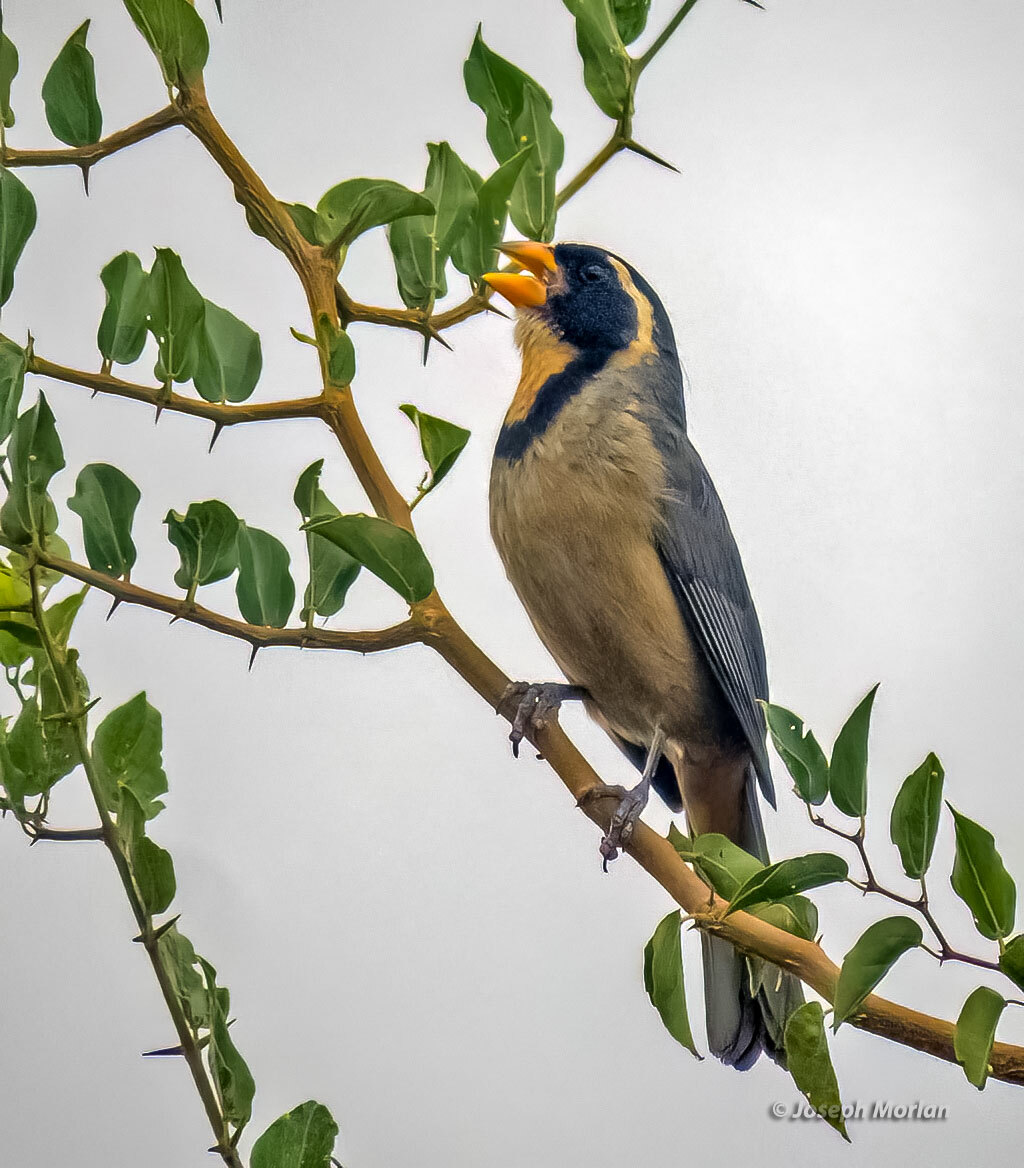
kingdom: Animalia
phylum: Chordata
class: Aves
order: Passeriformes
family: Thraupidae
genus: Saltator
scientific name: Saltator aurantiirostris
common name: Golden-billed saltator
